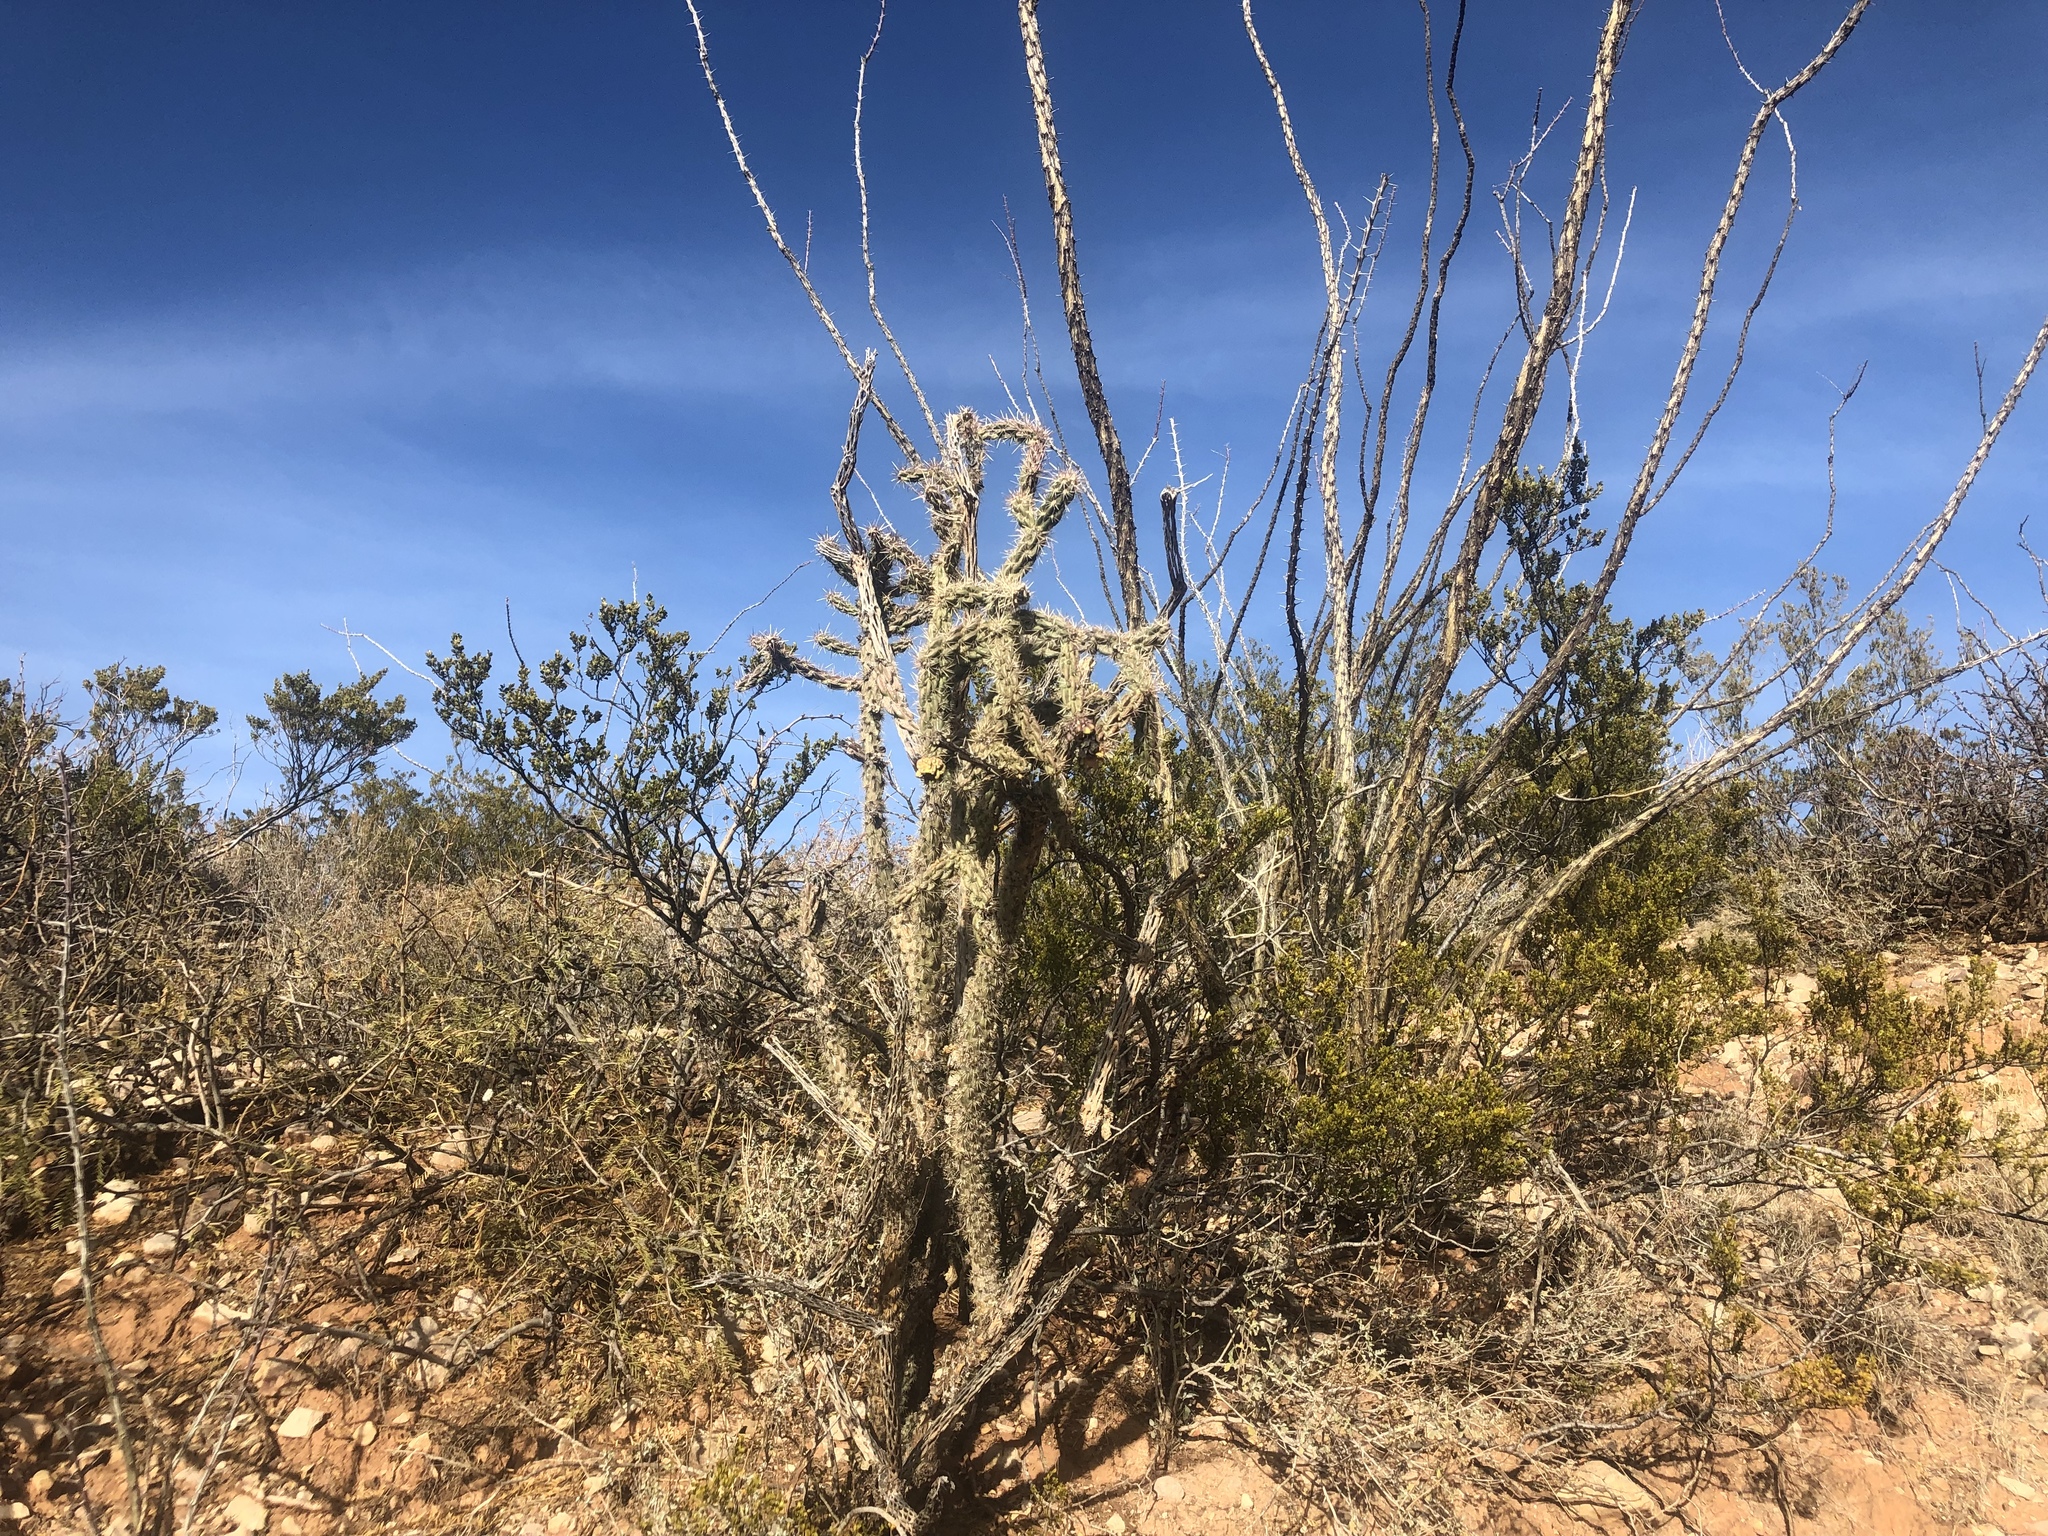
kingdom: Plantae
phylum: Tracheophyta
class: Magnoliopsida
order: Caryophyllales
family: Cactaceae
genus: Cylindropuntia
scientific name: Cylindropuntia imbricata
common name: Candelabrum cactus
